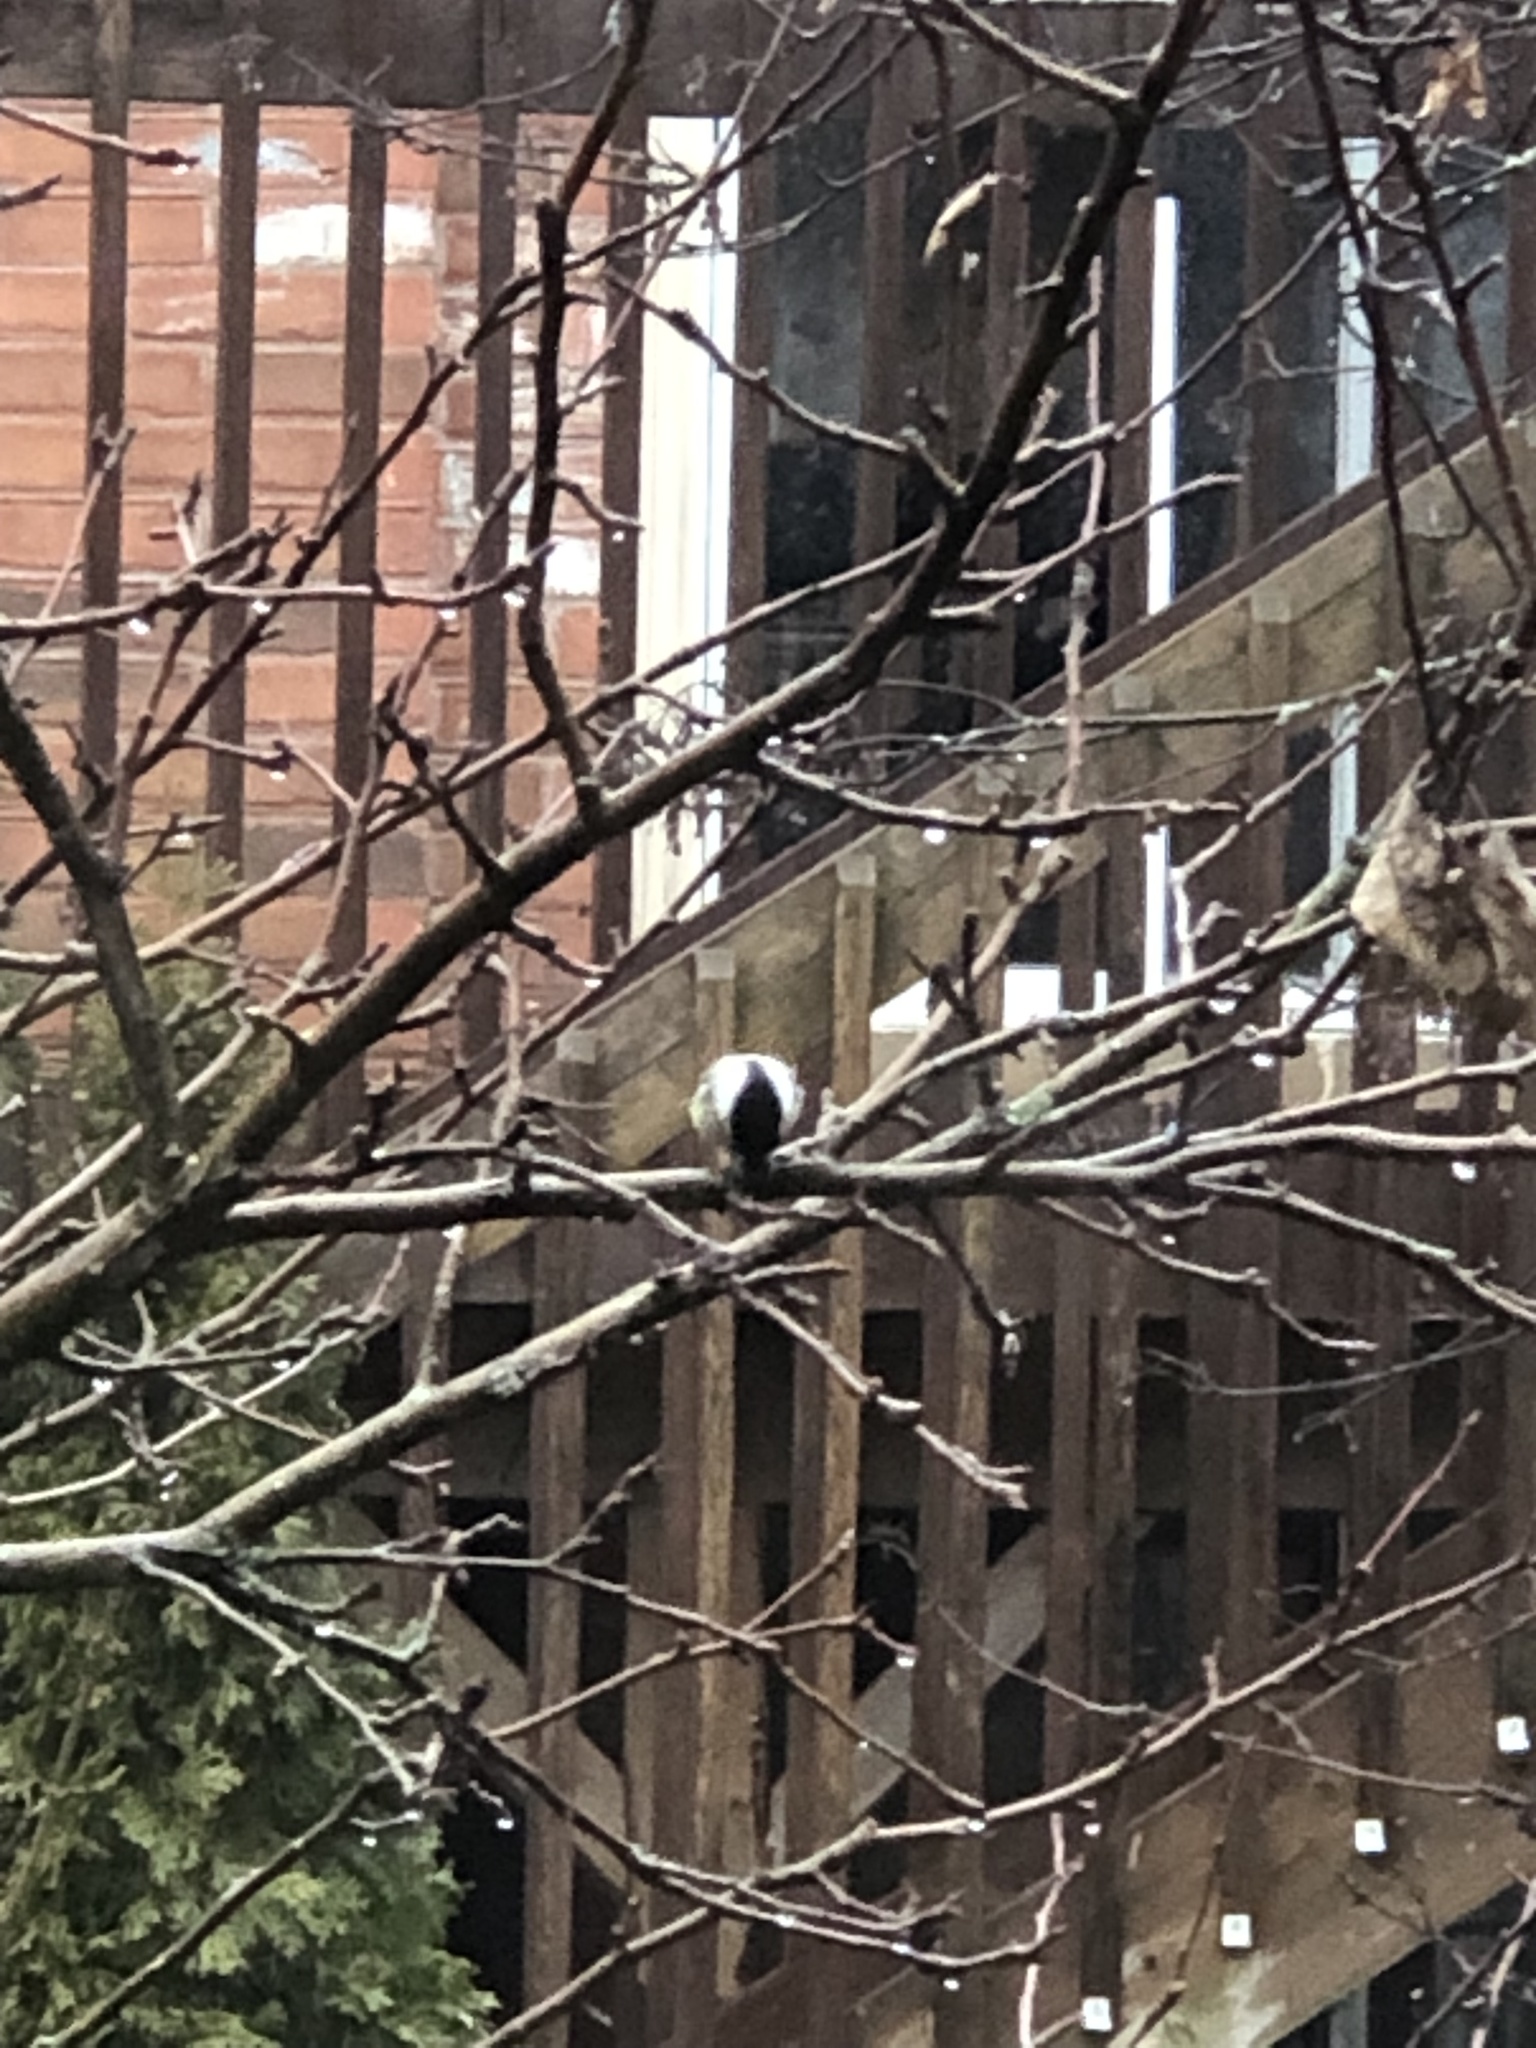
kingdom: Animalia
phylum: Chordata
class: Aves
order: Passeriformes
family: Paridae
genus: Poecile
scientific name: Poecile atricapillus
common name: Black-capped chickadee
